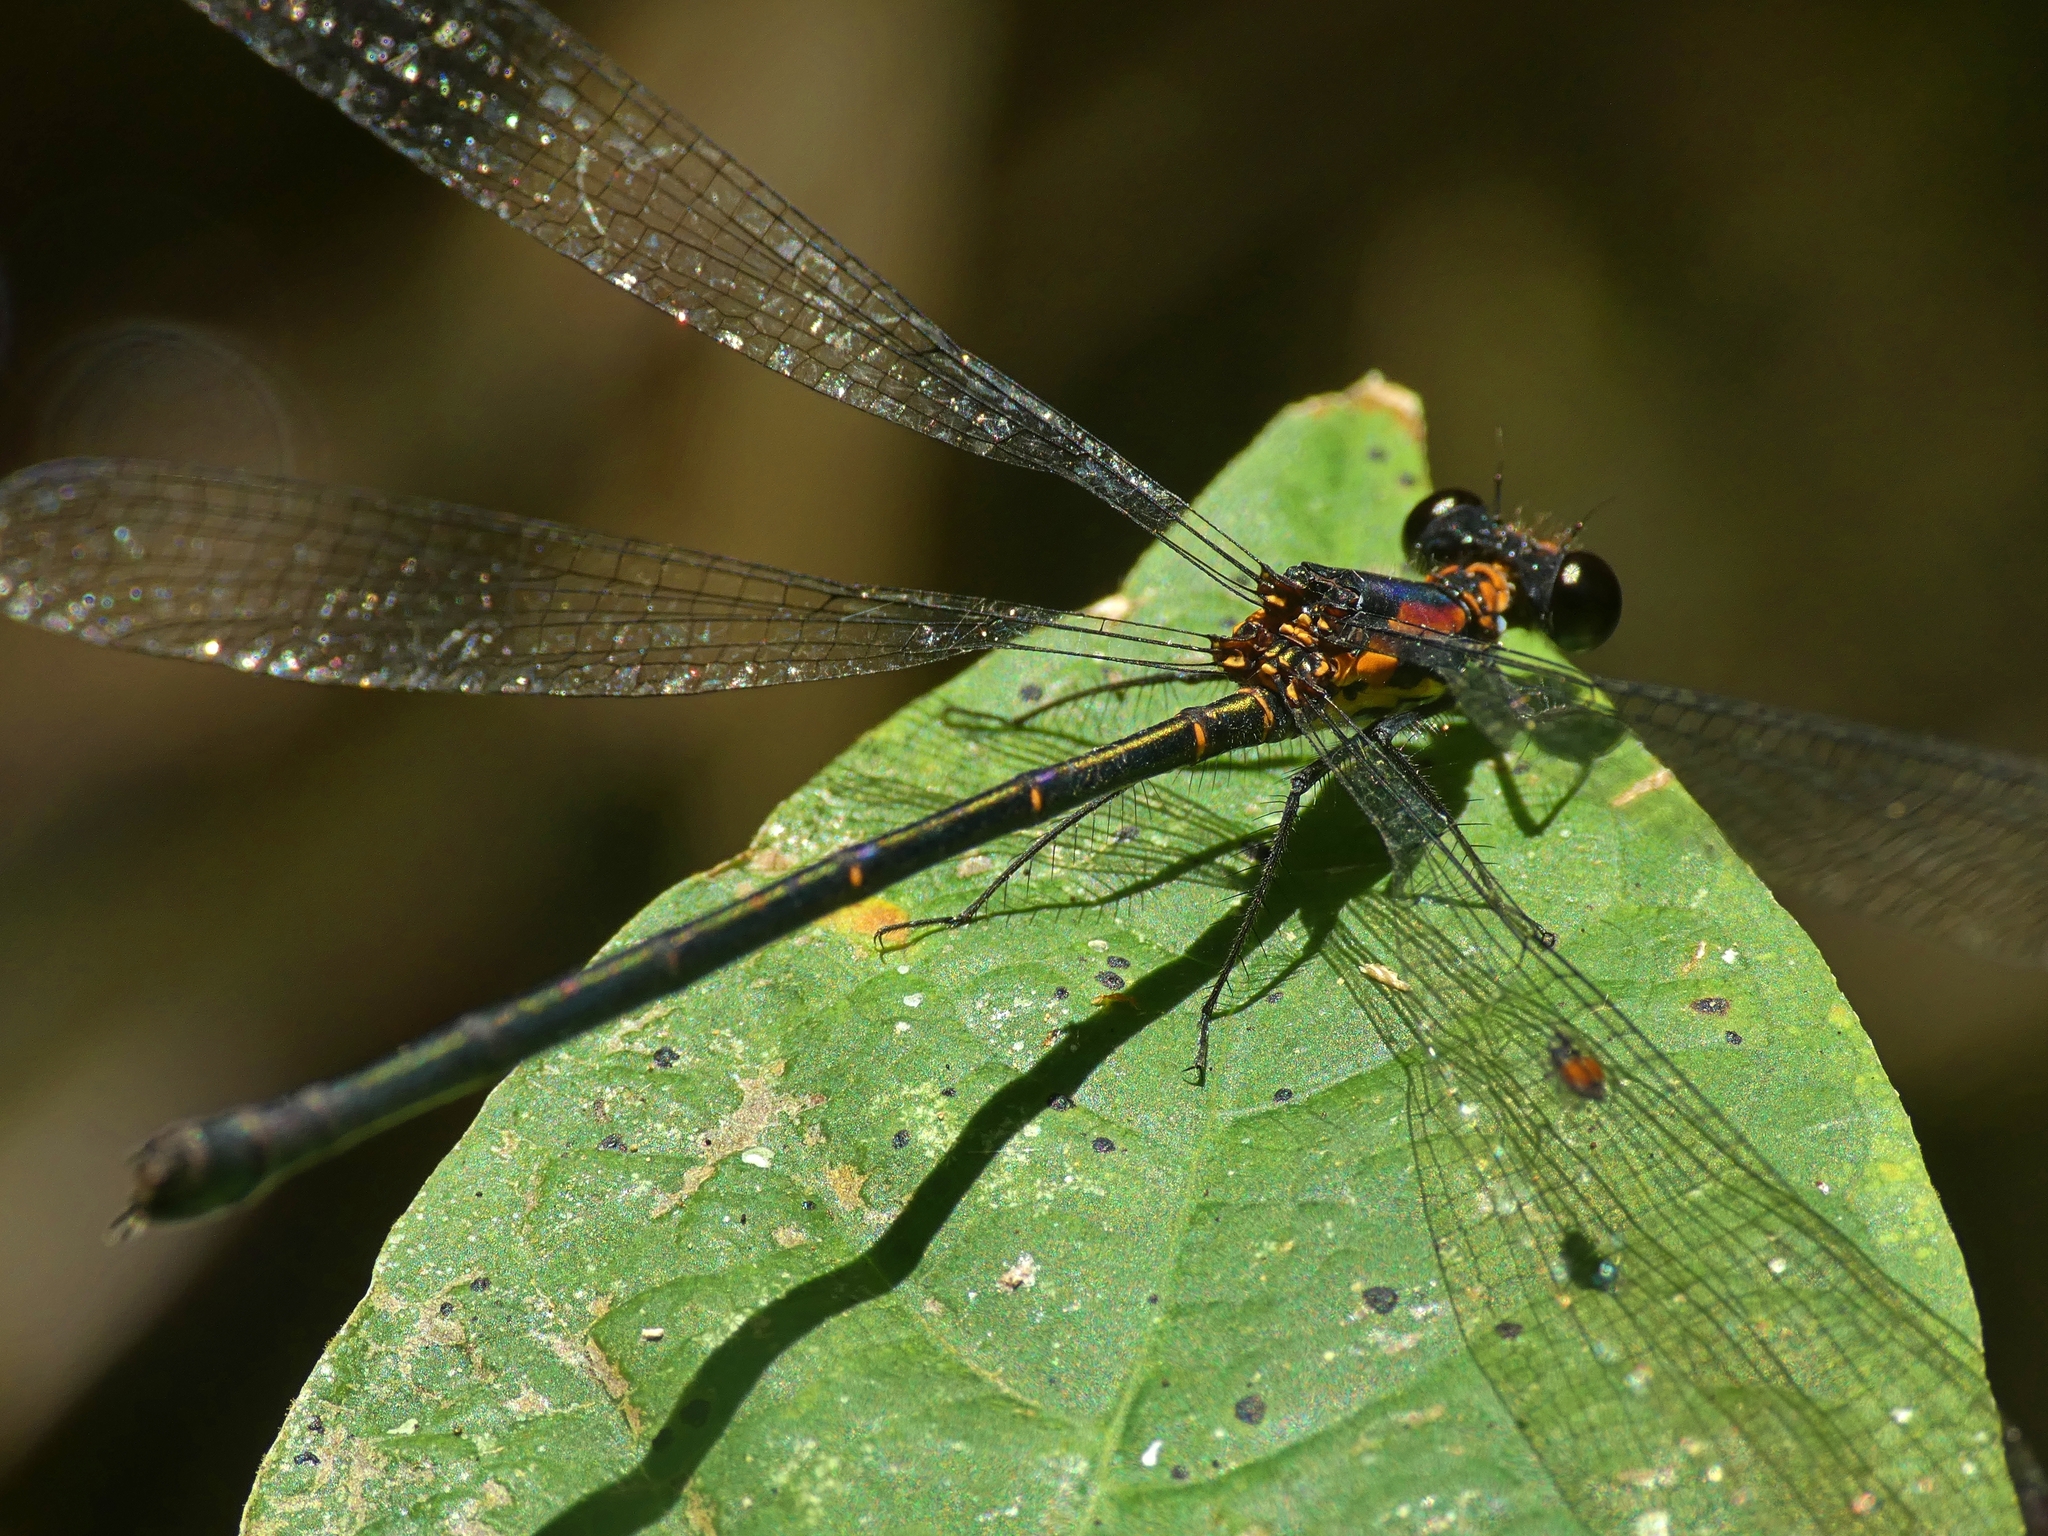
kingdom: Animalia
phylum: Arthropoda
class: Insecta
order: Odonata
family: Argiolestidae
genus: Austroargiolestes
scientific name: Austroargiolestes aureus
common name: Tropical flatwing
